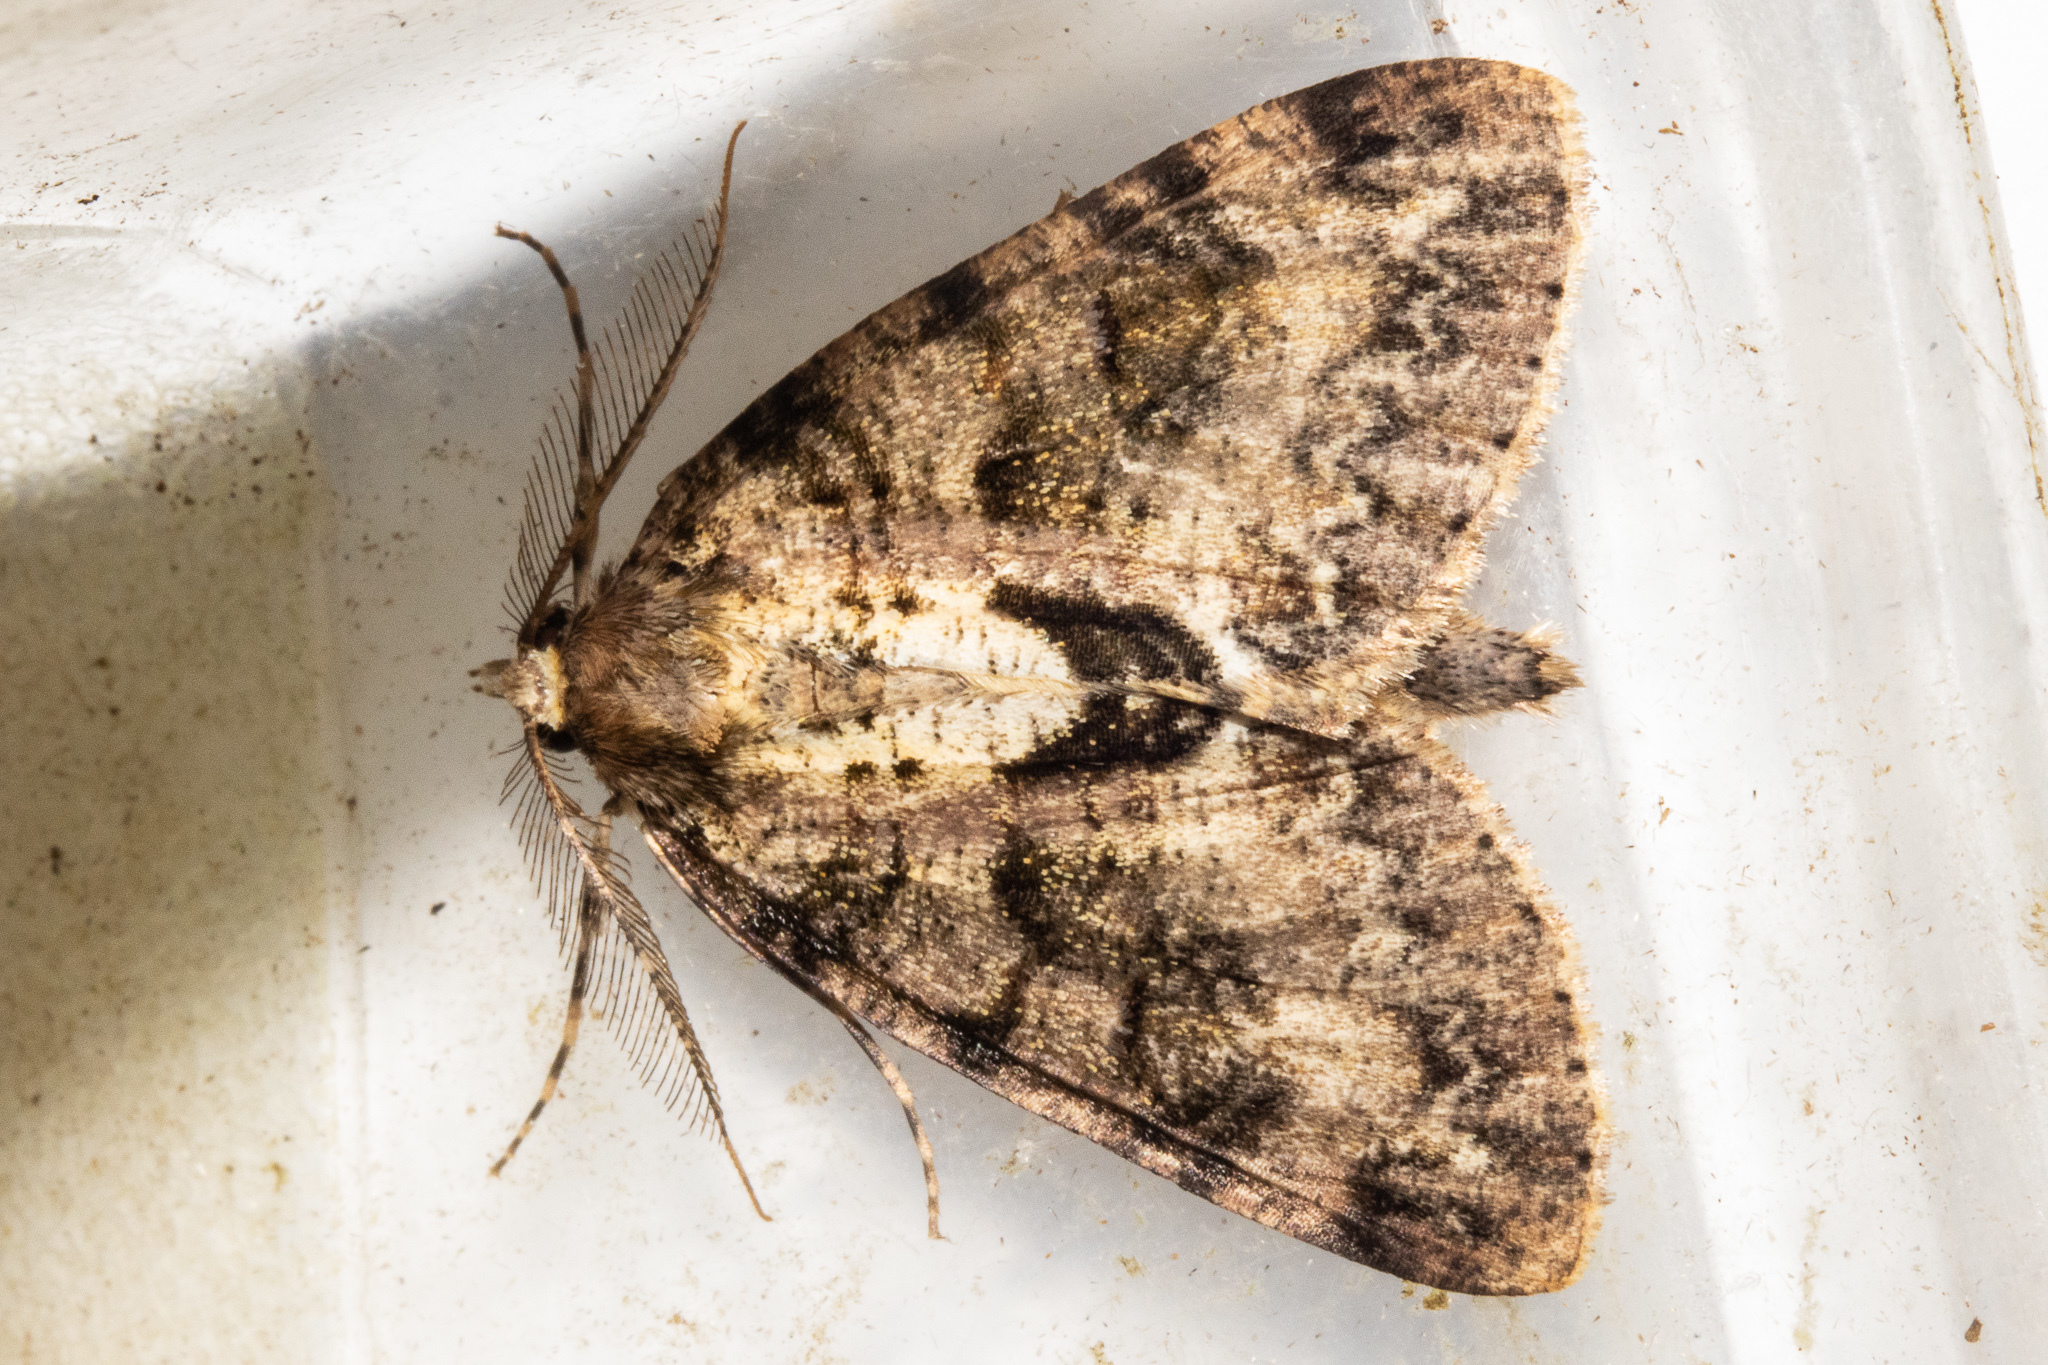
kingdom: Animalia
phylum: Arthropoda
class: Insecta
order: Lepidoptera
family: Geometridae
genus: Pseudocoremia
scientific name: Pseudocoremia suavis
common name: Common forest looper
